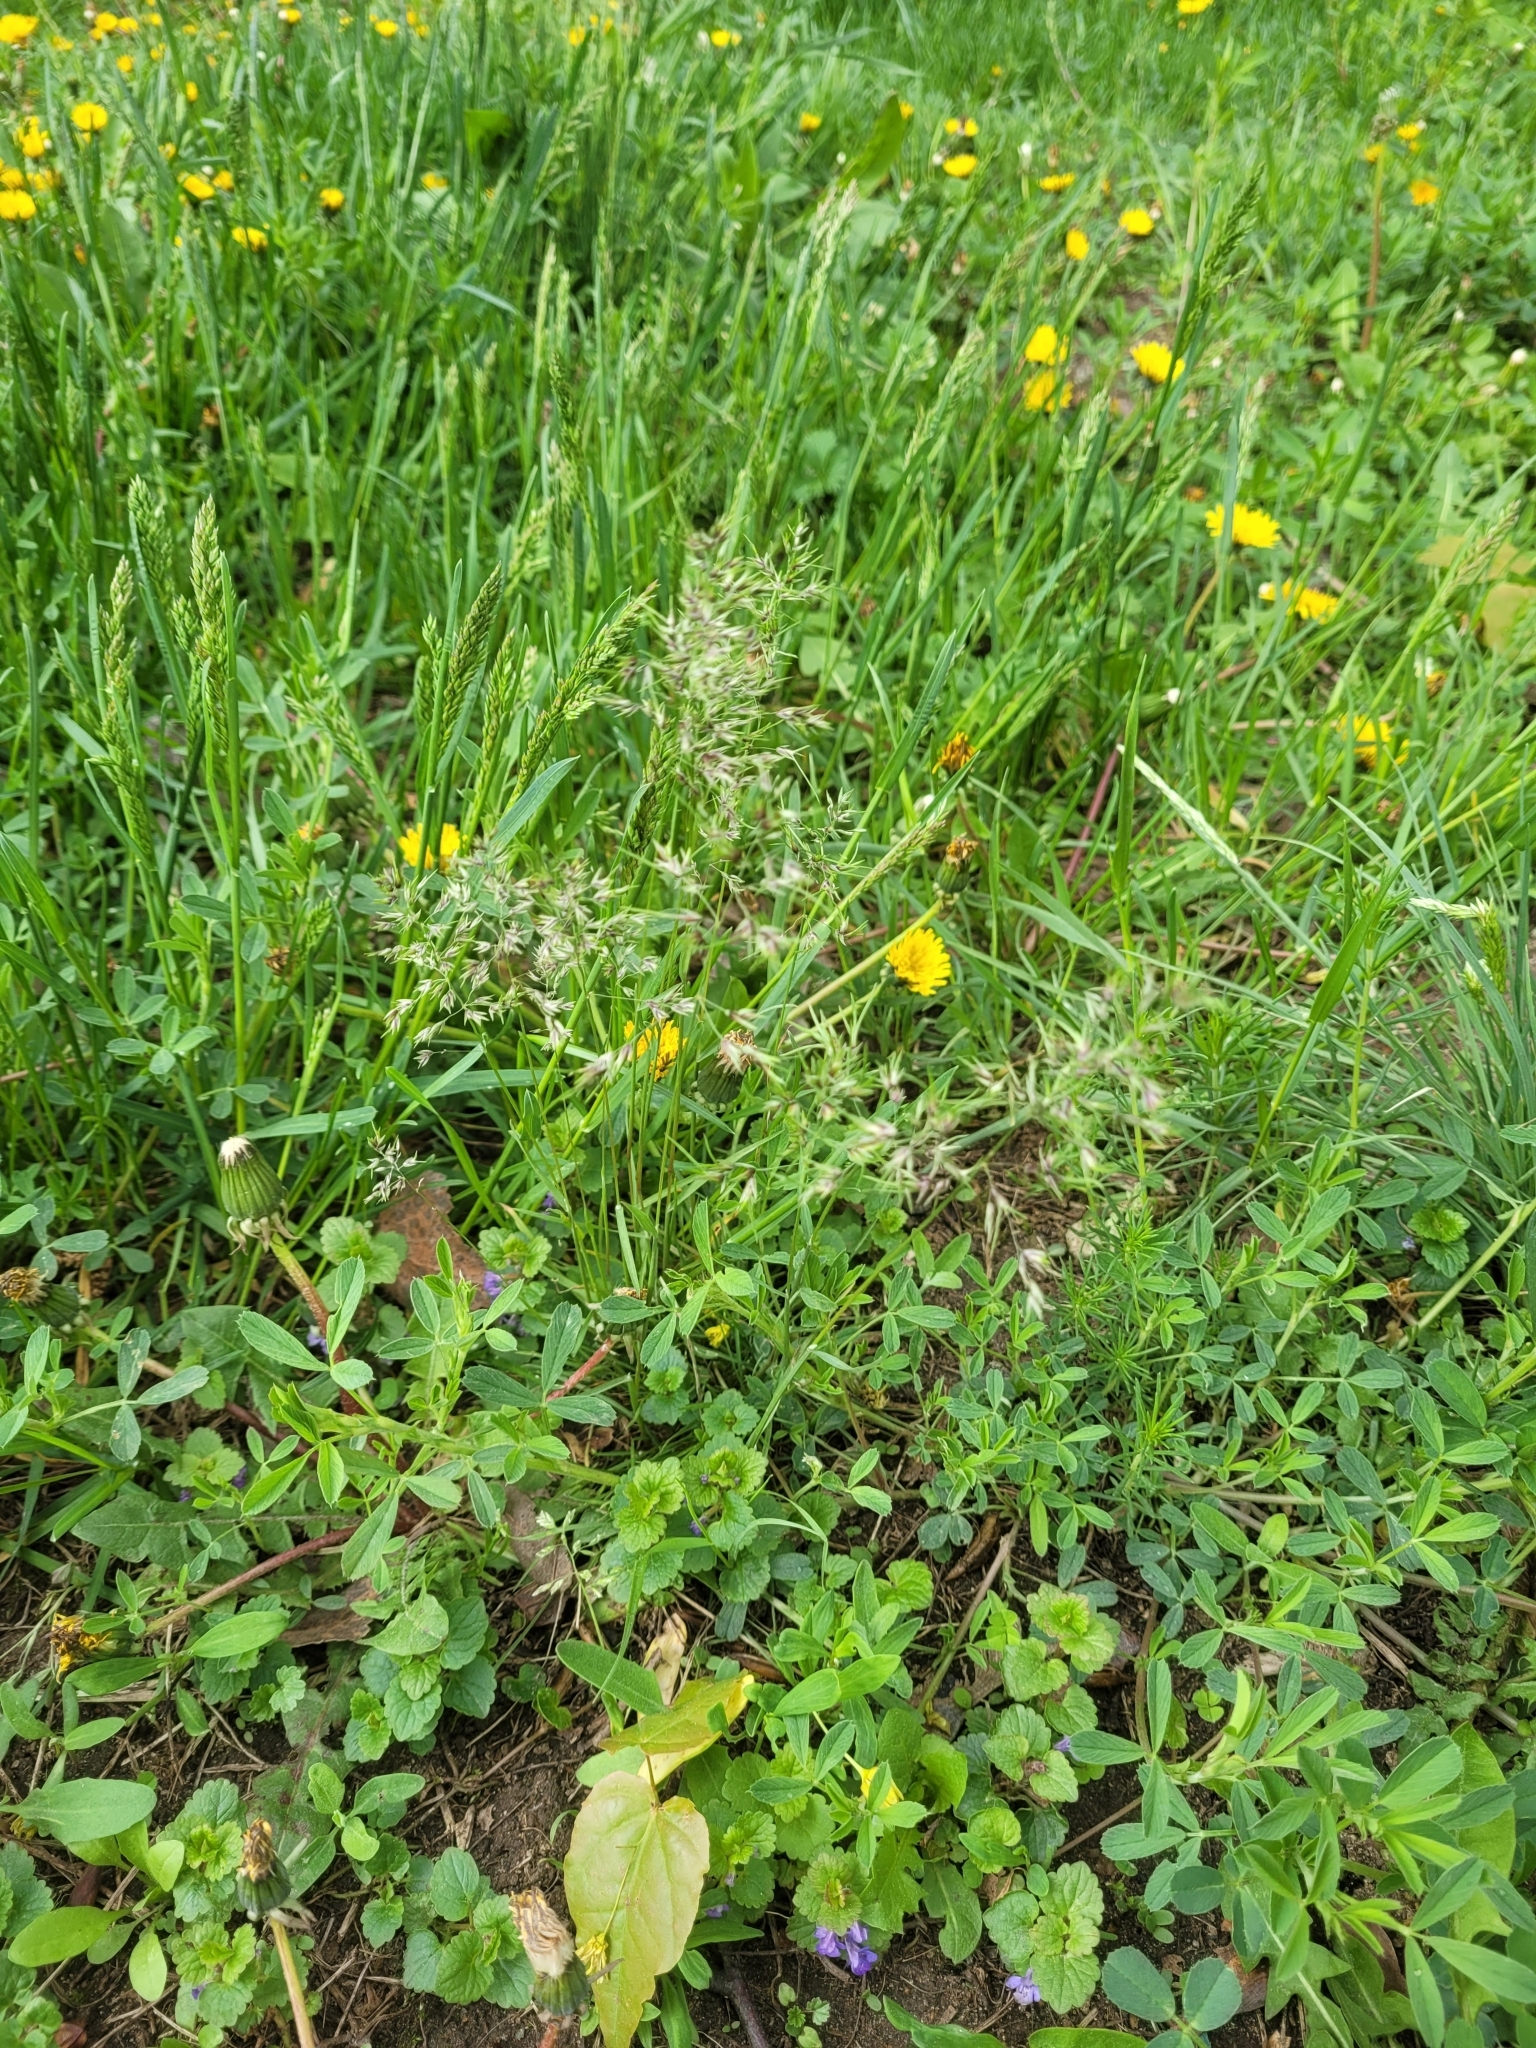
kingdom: Plantae
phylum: Tracheophyta
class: Liliopsida
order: Poales
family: Poaceae
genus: Poa
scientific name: Poa bulbosa
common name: Bulbous bluegrass
